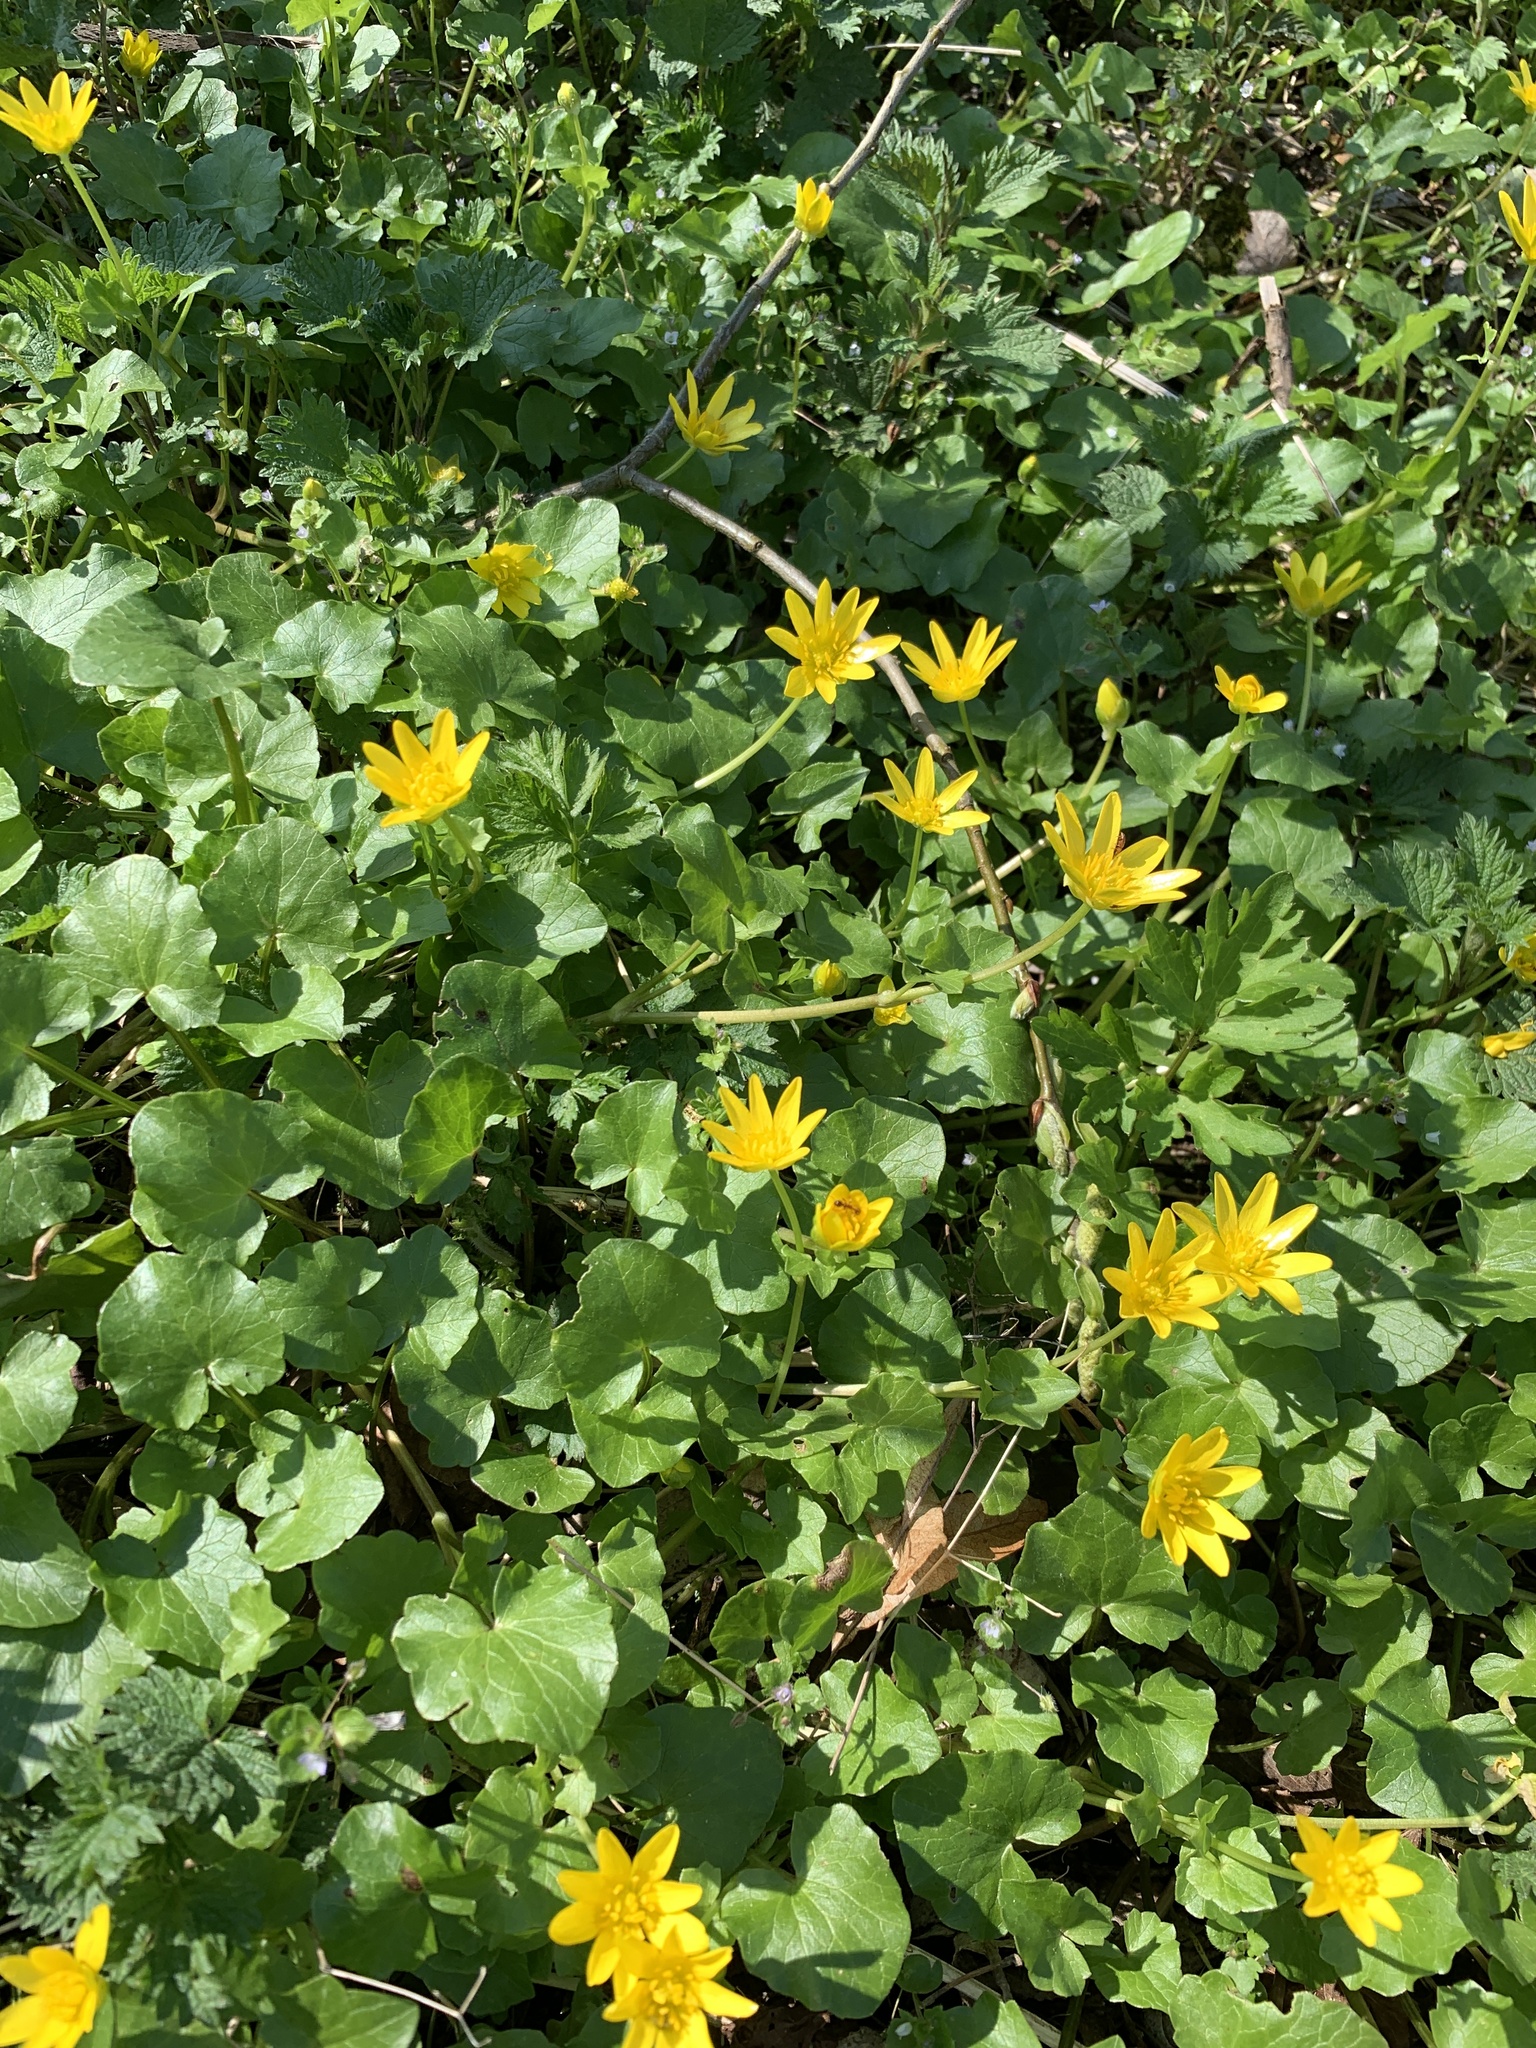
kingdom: Plantae
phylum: Tracheophyta
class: Magnoliopsida
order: Ranunculales
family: Ranunculaceae
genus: Ficaria
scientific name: Ficaria verna
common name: Lesser celandine
